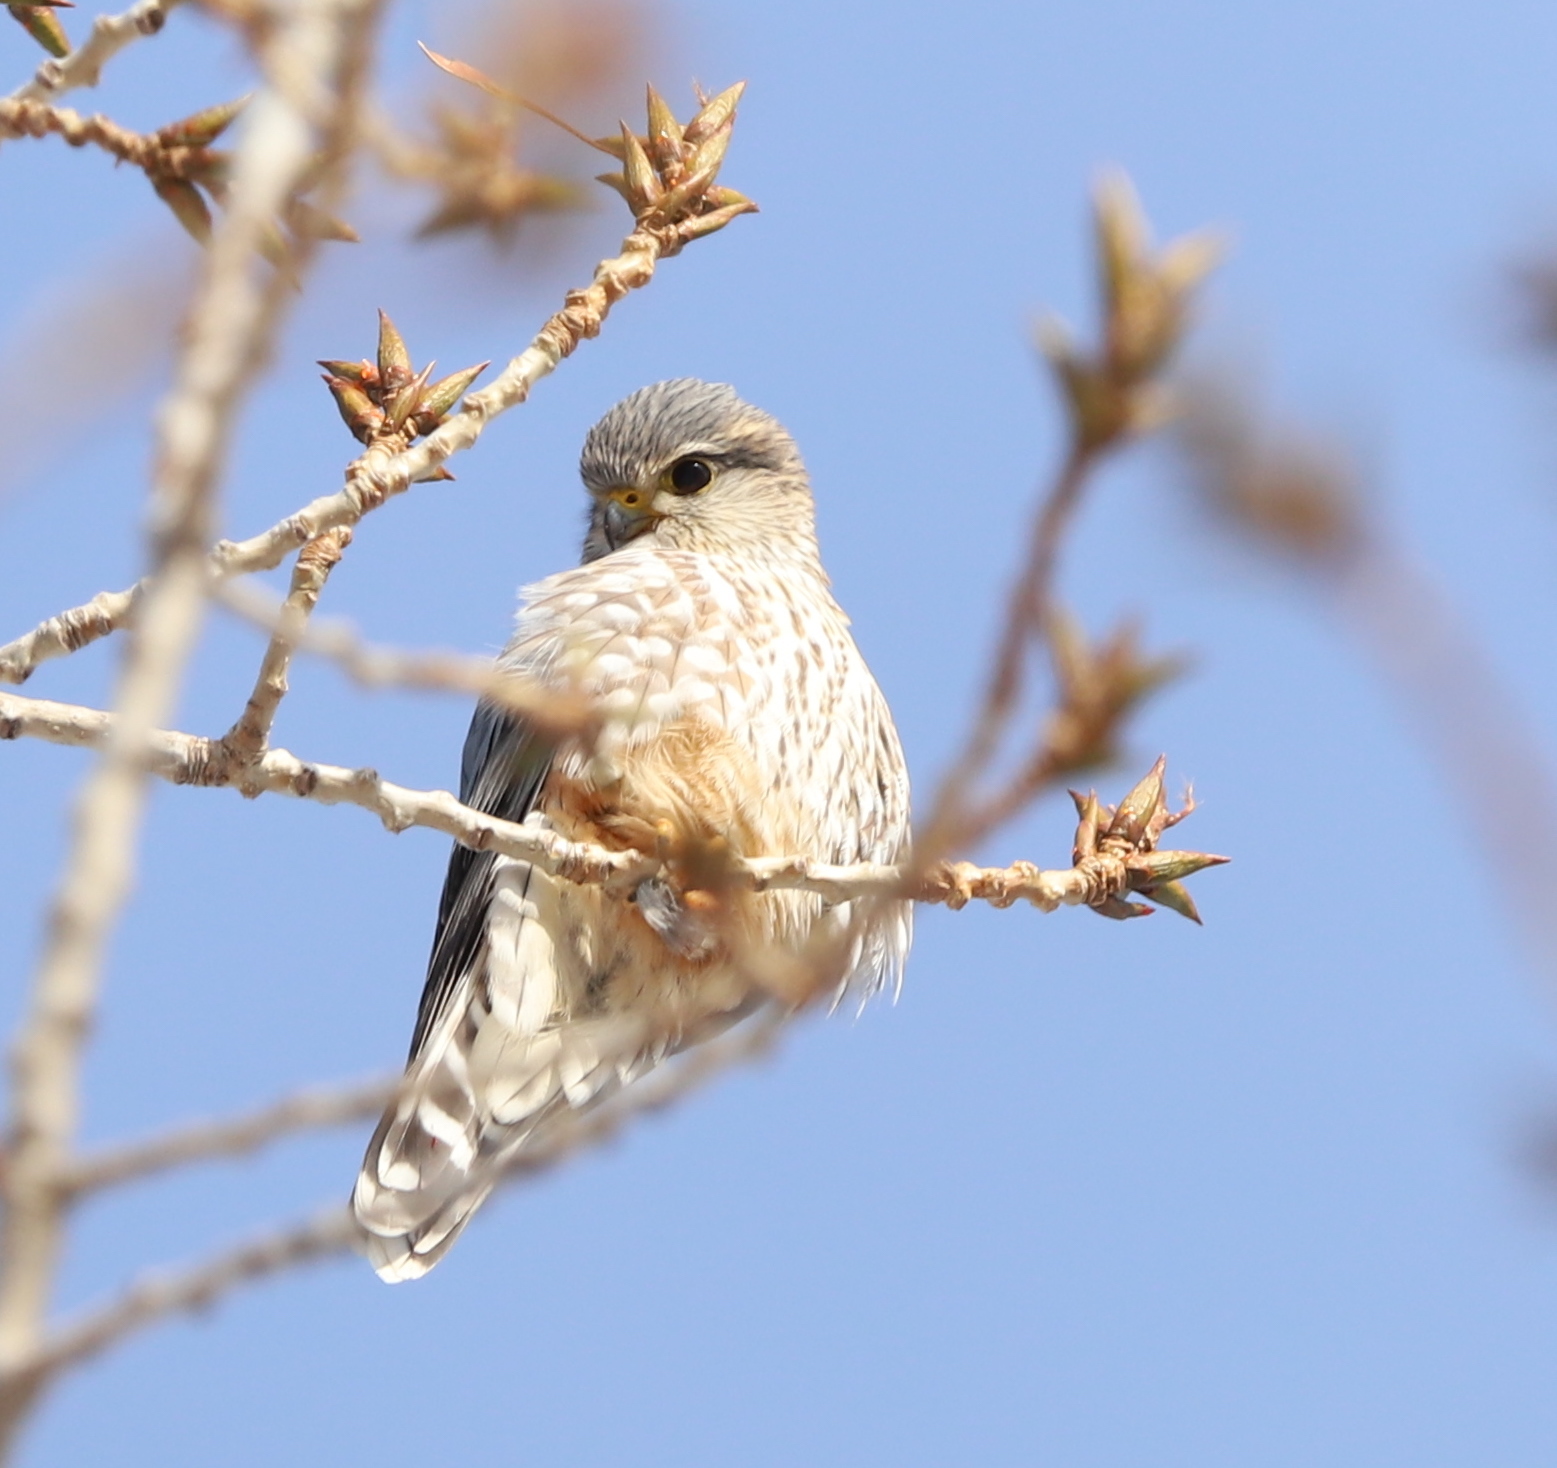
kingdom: Animalia
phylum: Chordata
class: Aves
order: Falconiformes
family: Falconidae
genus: Falco
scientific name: Falco columbarius
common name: Merlin
